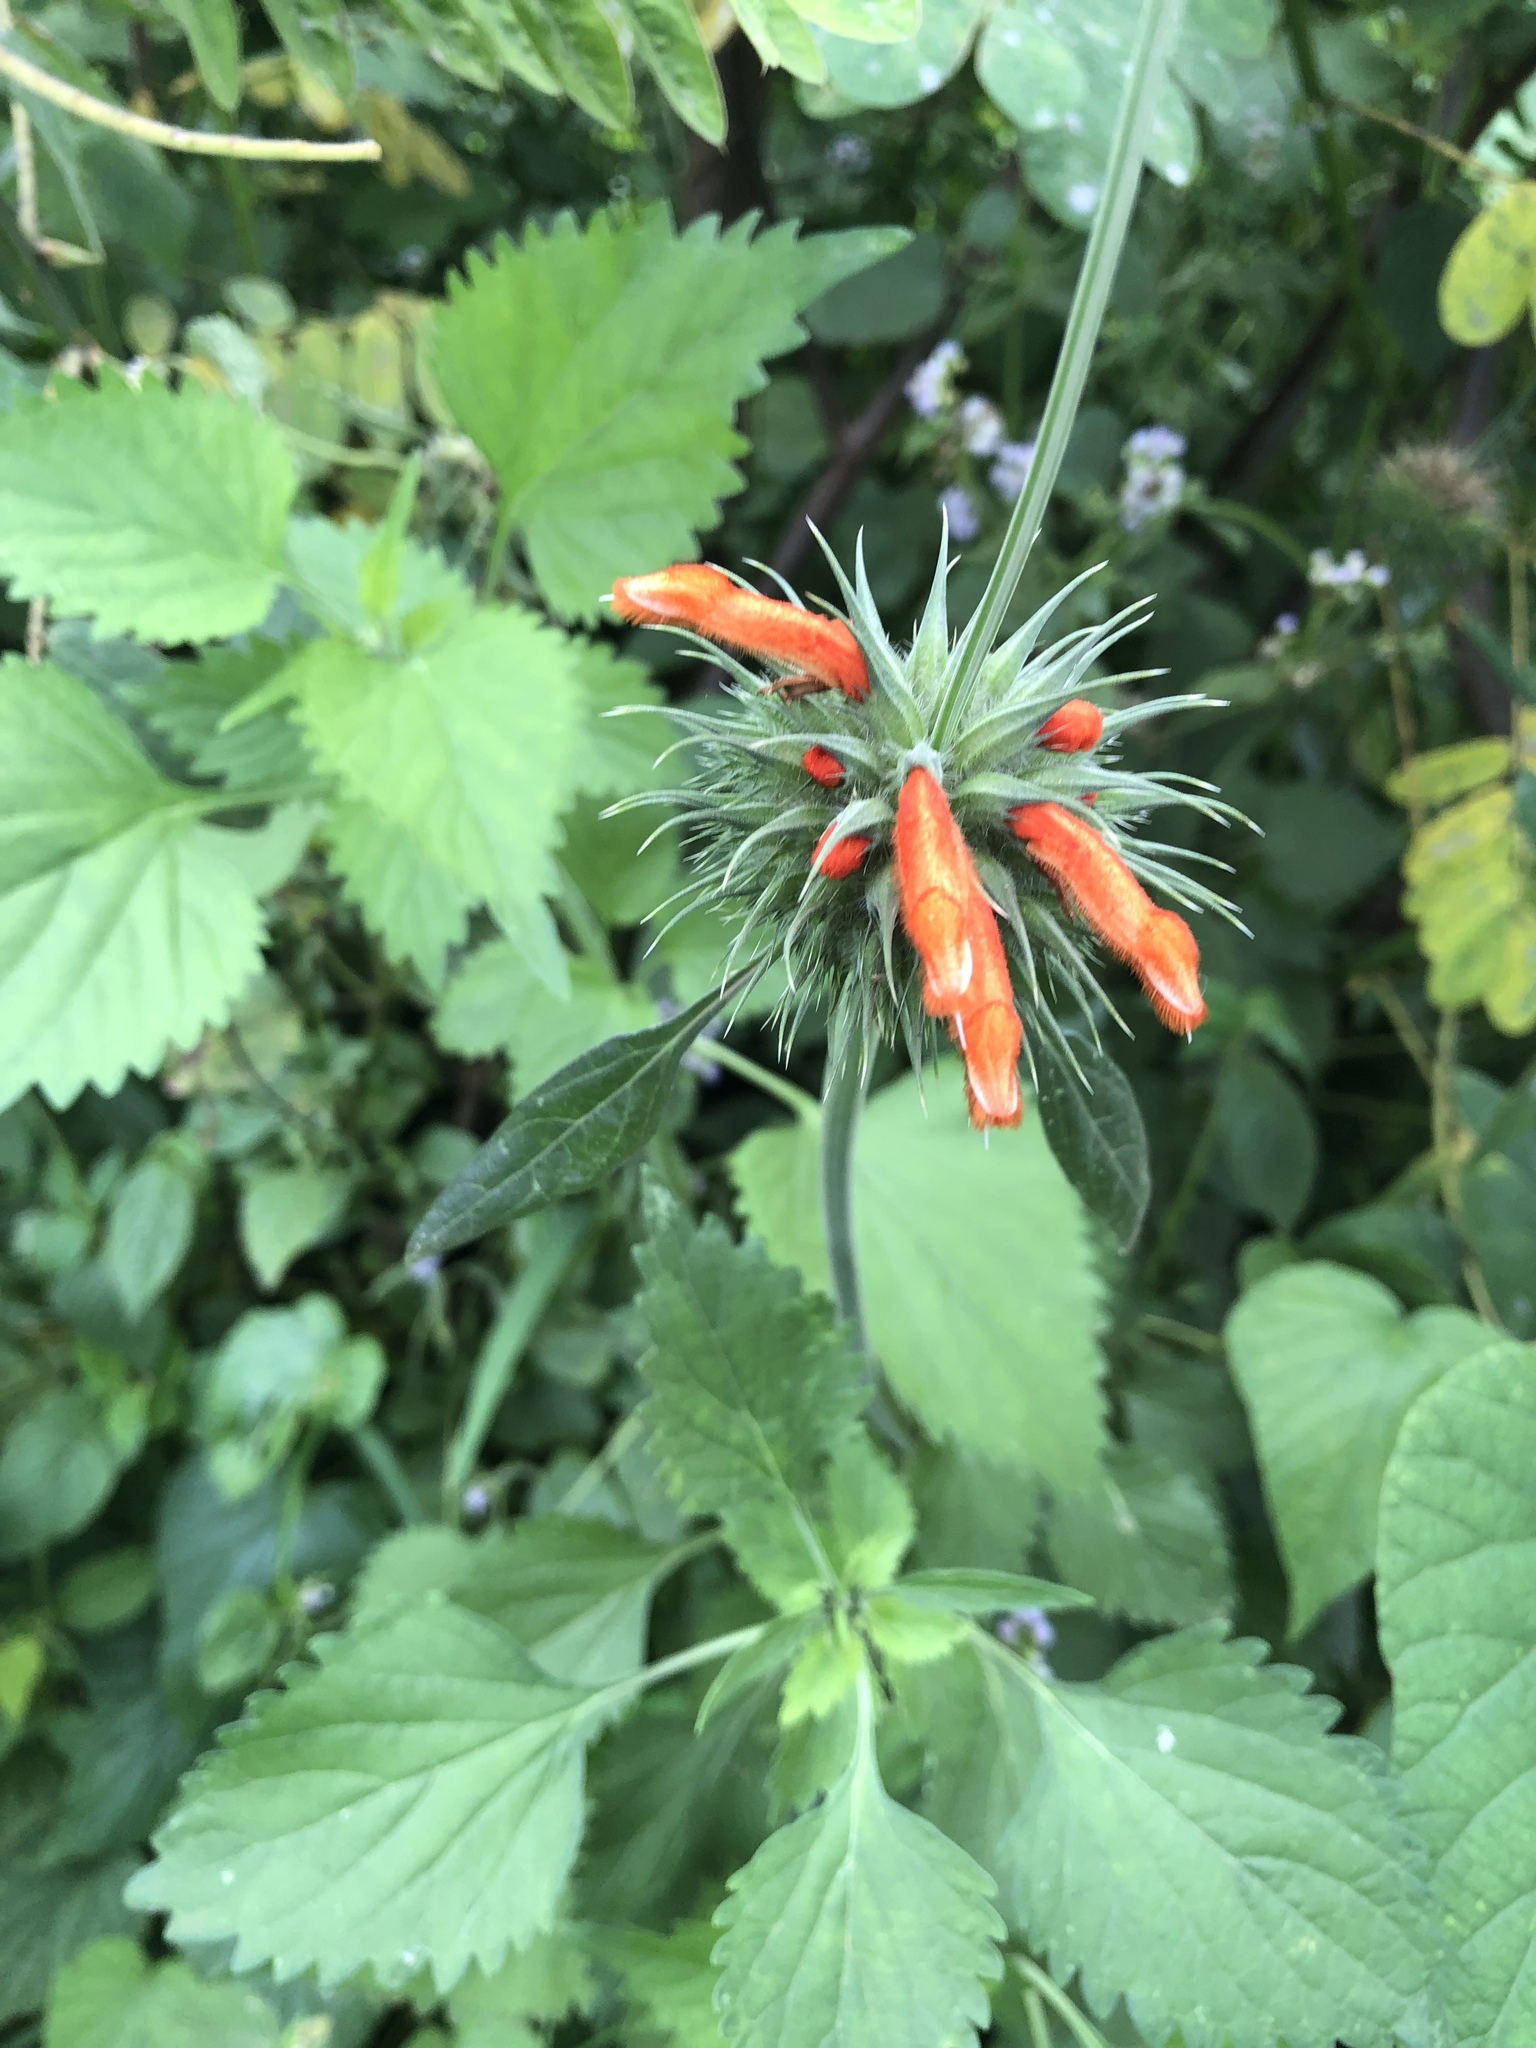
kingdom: Plantae
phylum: Tracheophyta
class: Magnoliopsida
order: Lamiales
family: Lamiaceae
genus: Leonotis
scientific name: Leonotis nepetifolia
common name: Christmas candlestick
